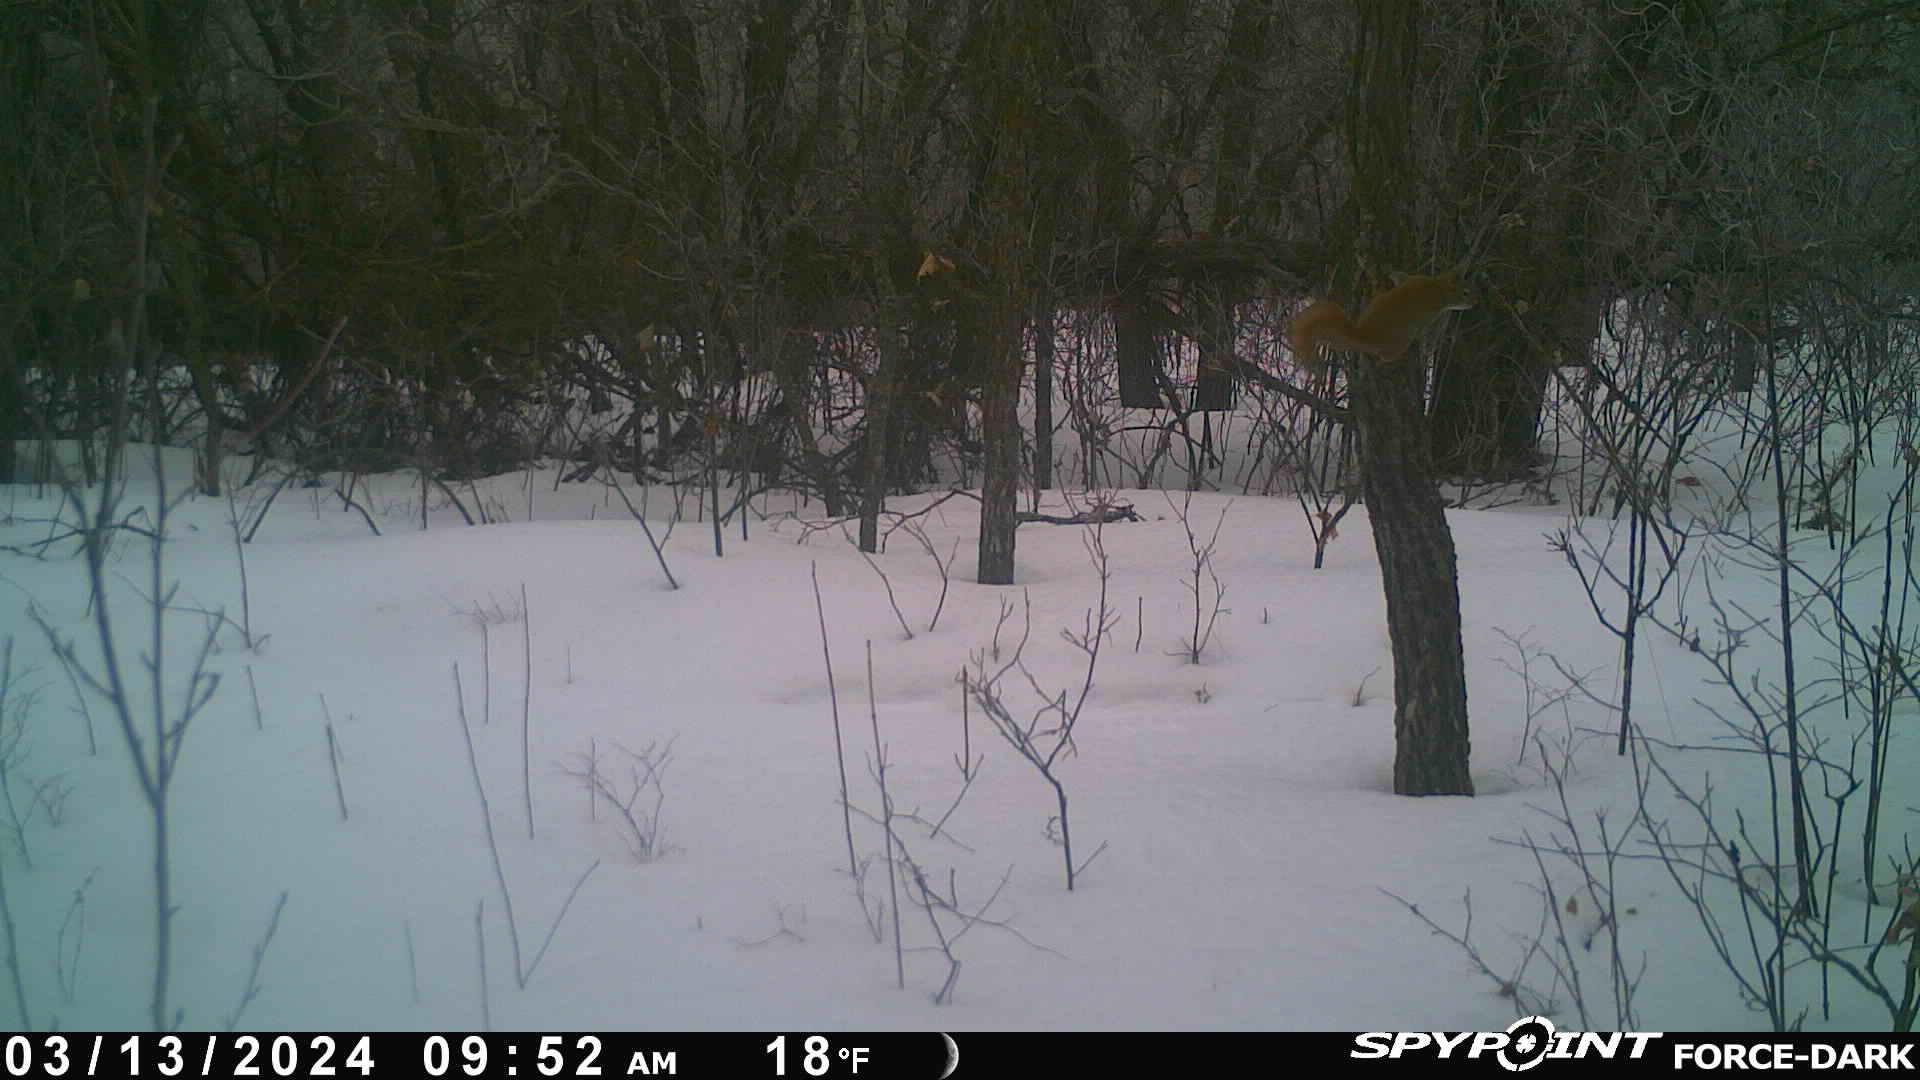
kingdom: Animalia
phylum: Chordata
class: Mammalia
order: Rodentia
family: Sciuridae
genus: Tamiasciurus
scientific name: Tamiasciurus hudsonicus
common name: Red squirrel
